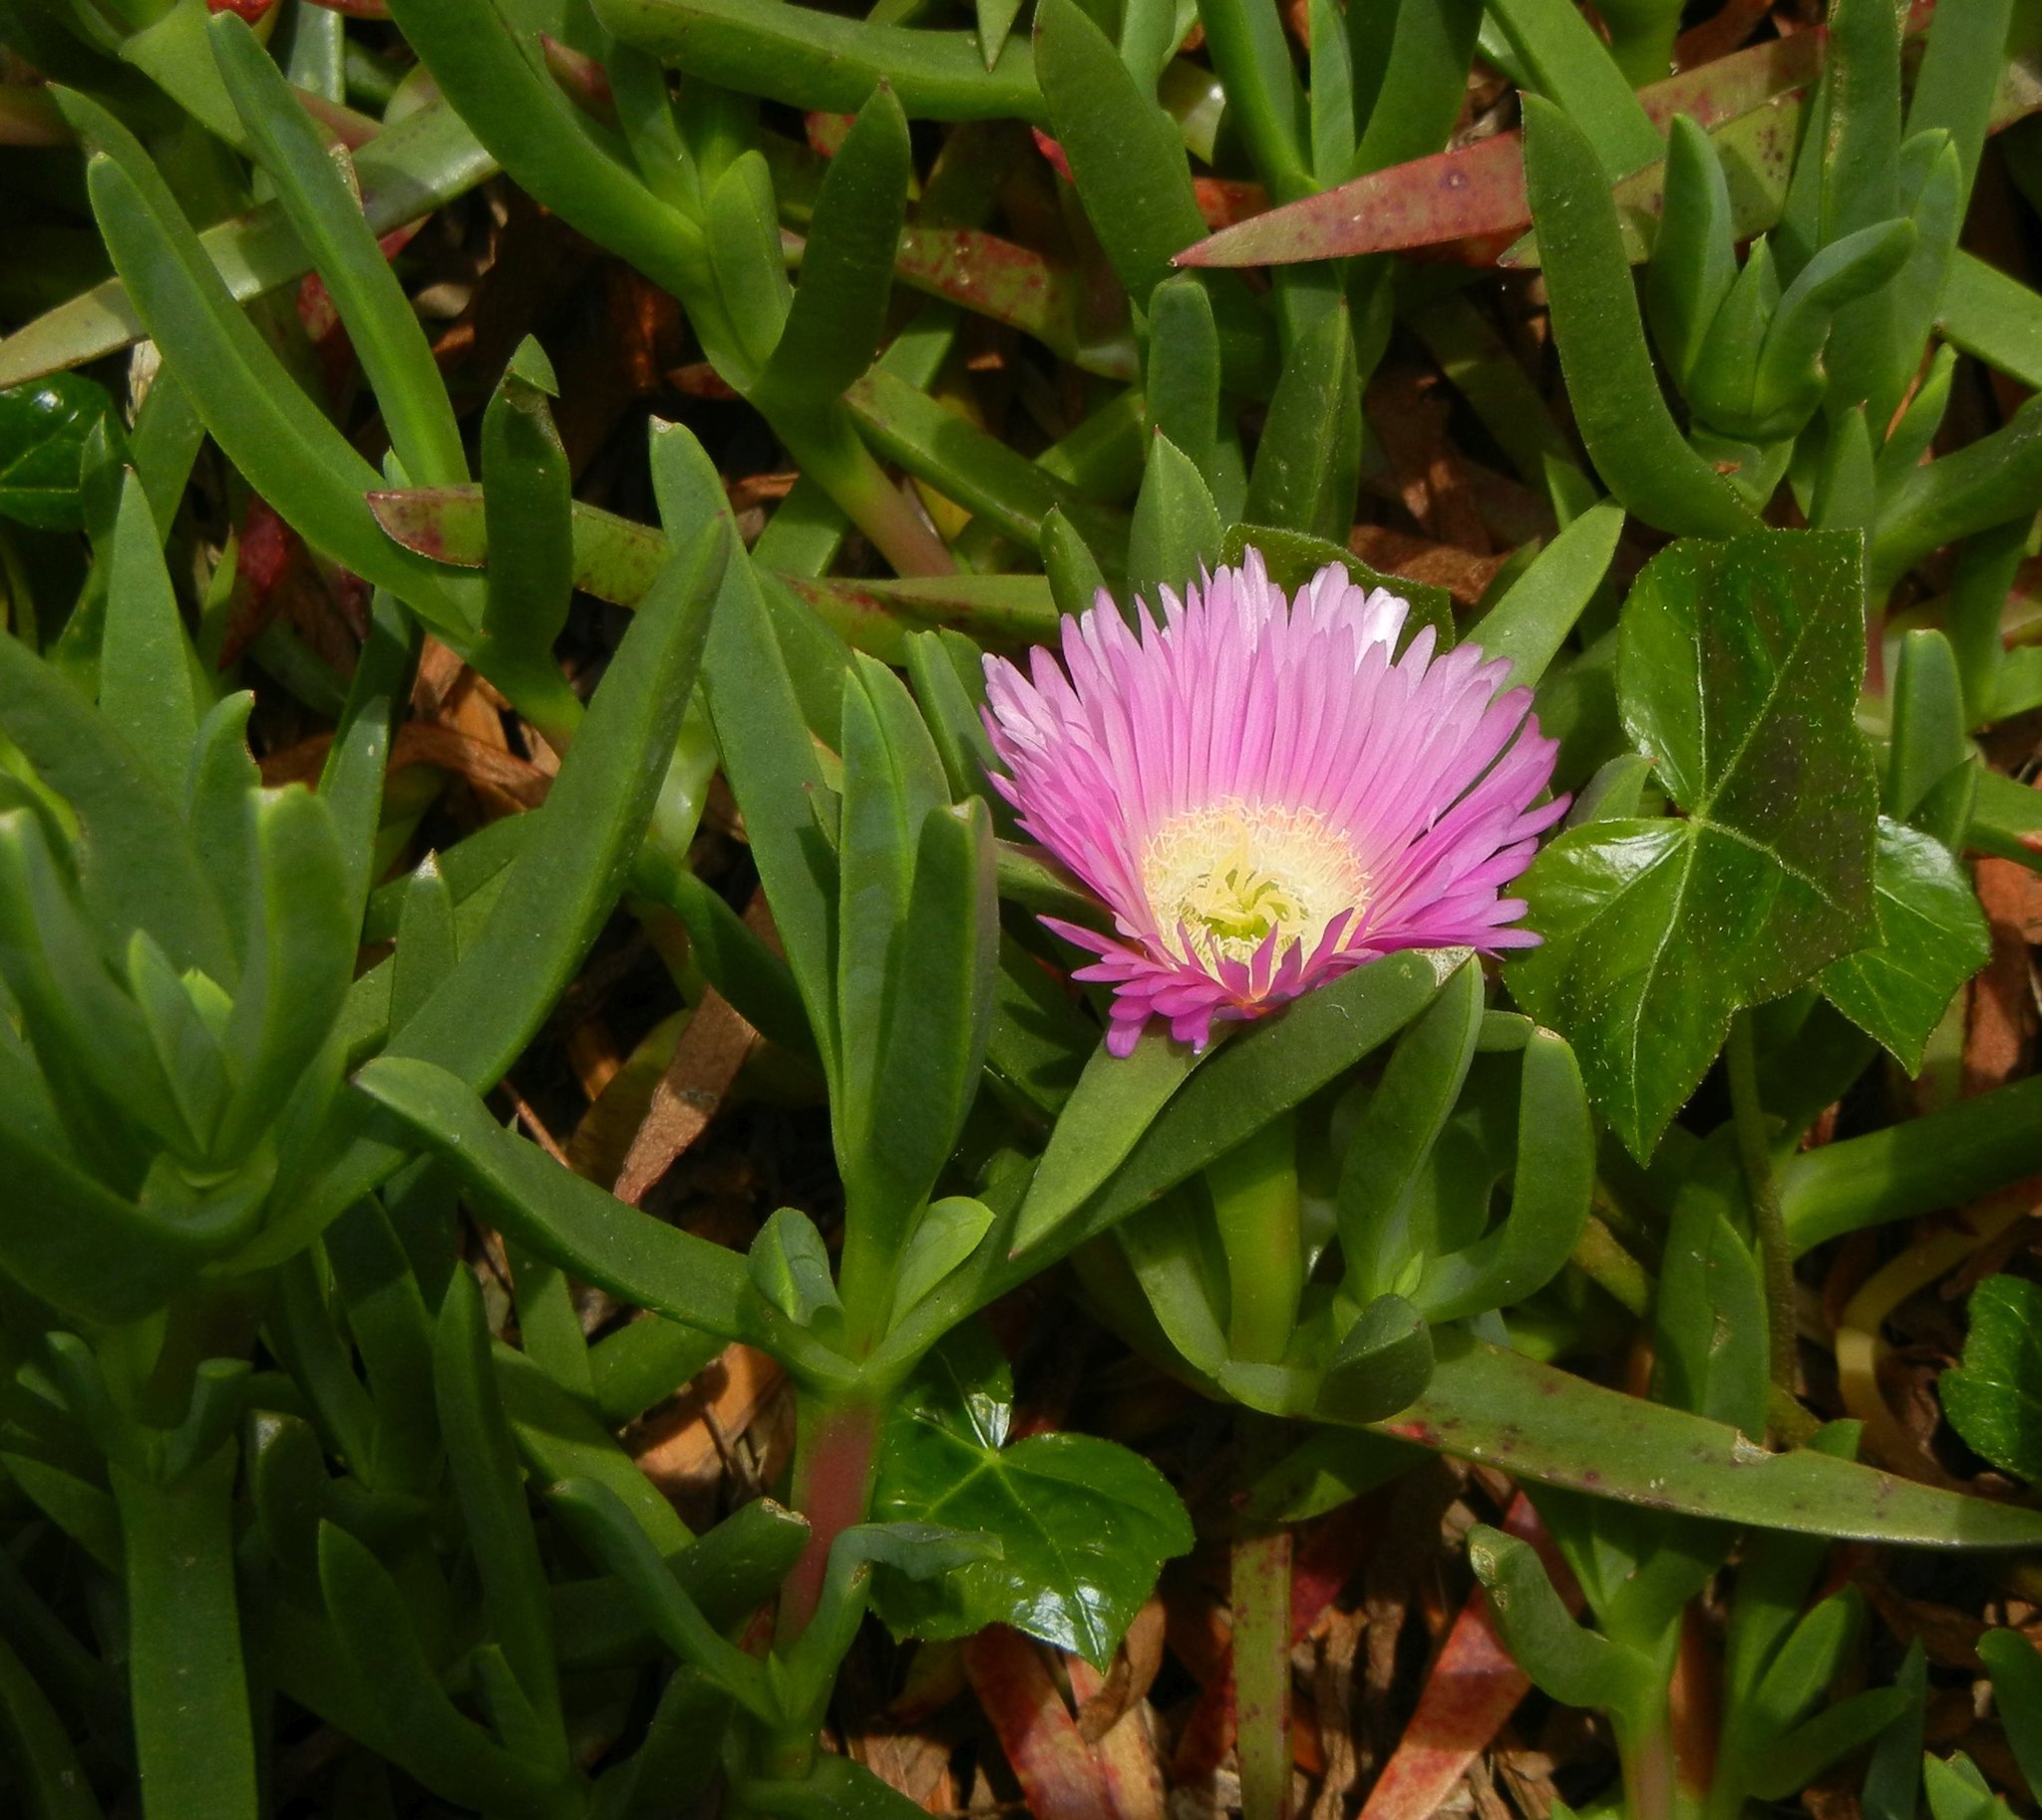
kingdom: Plantae
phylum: Tracheophyta
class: Magnoliopsida
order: Caryophyllales
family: Aizoaceae
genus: Carpobrotus
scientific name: Carpobrotus edulis
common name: Hottentot-fig
